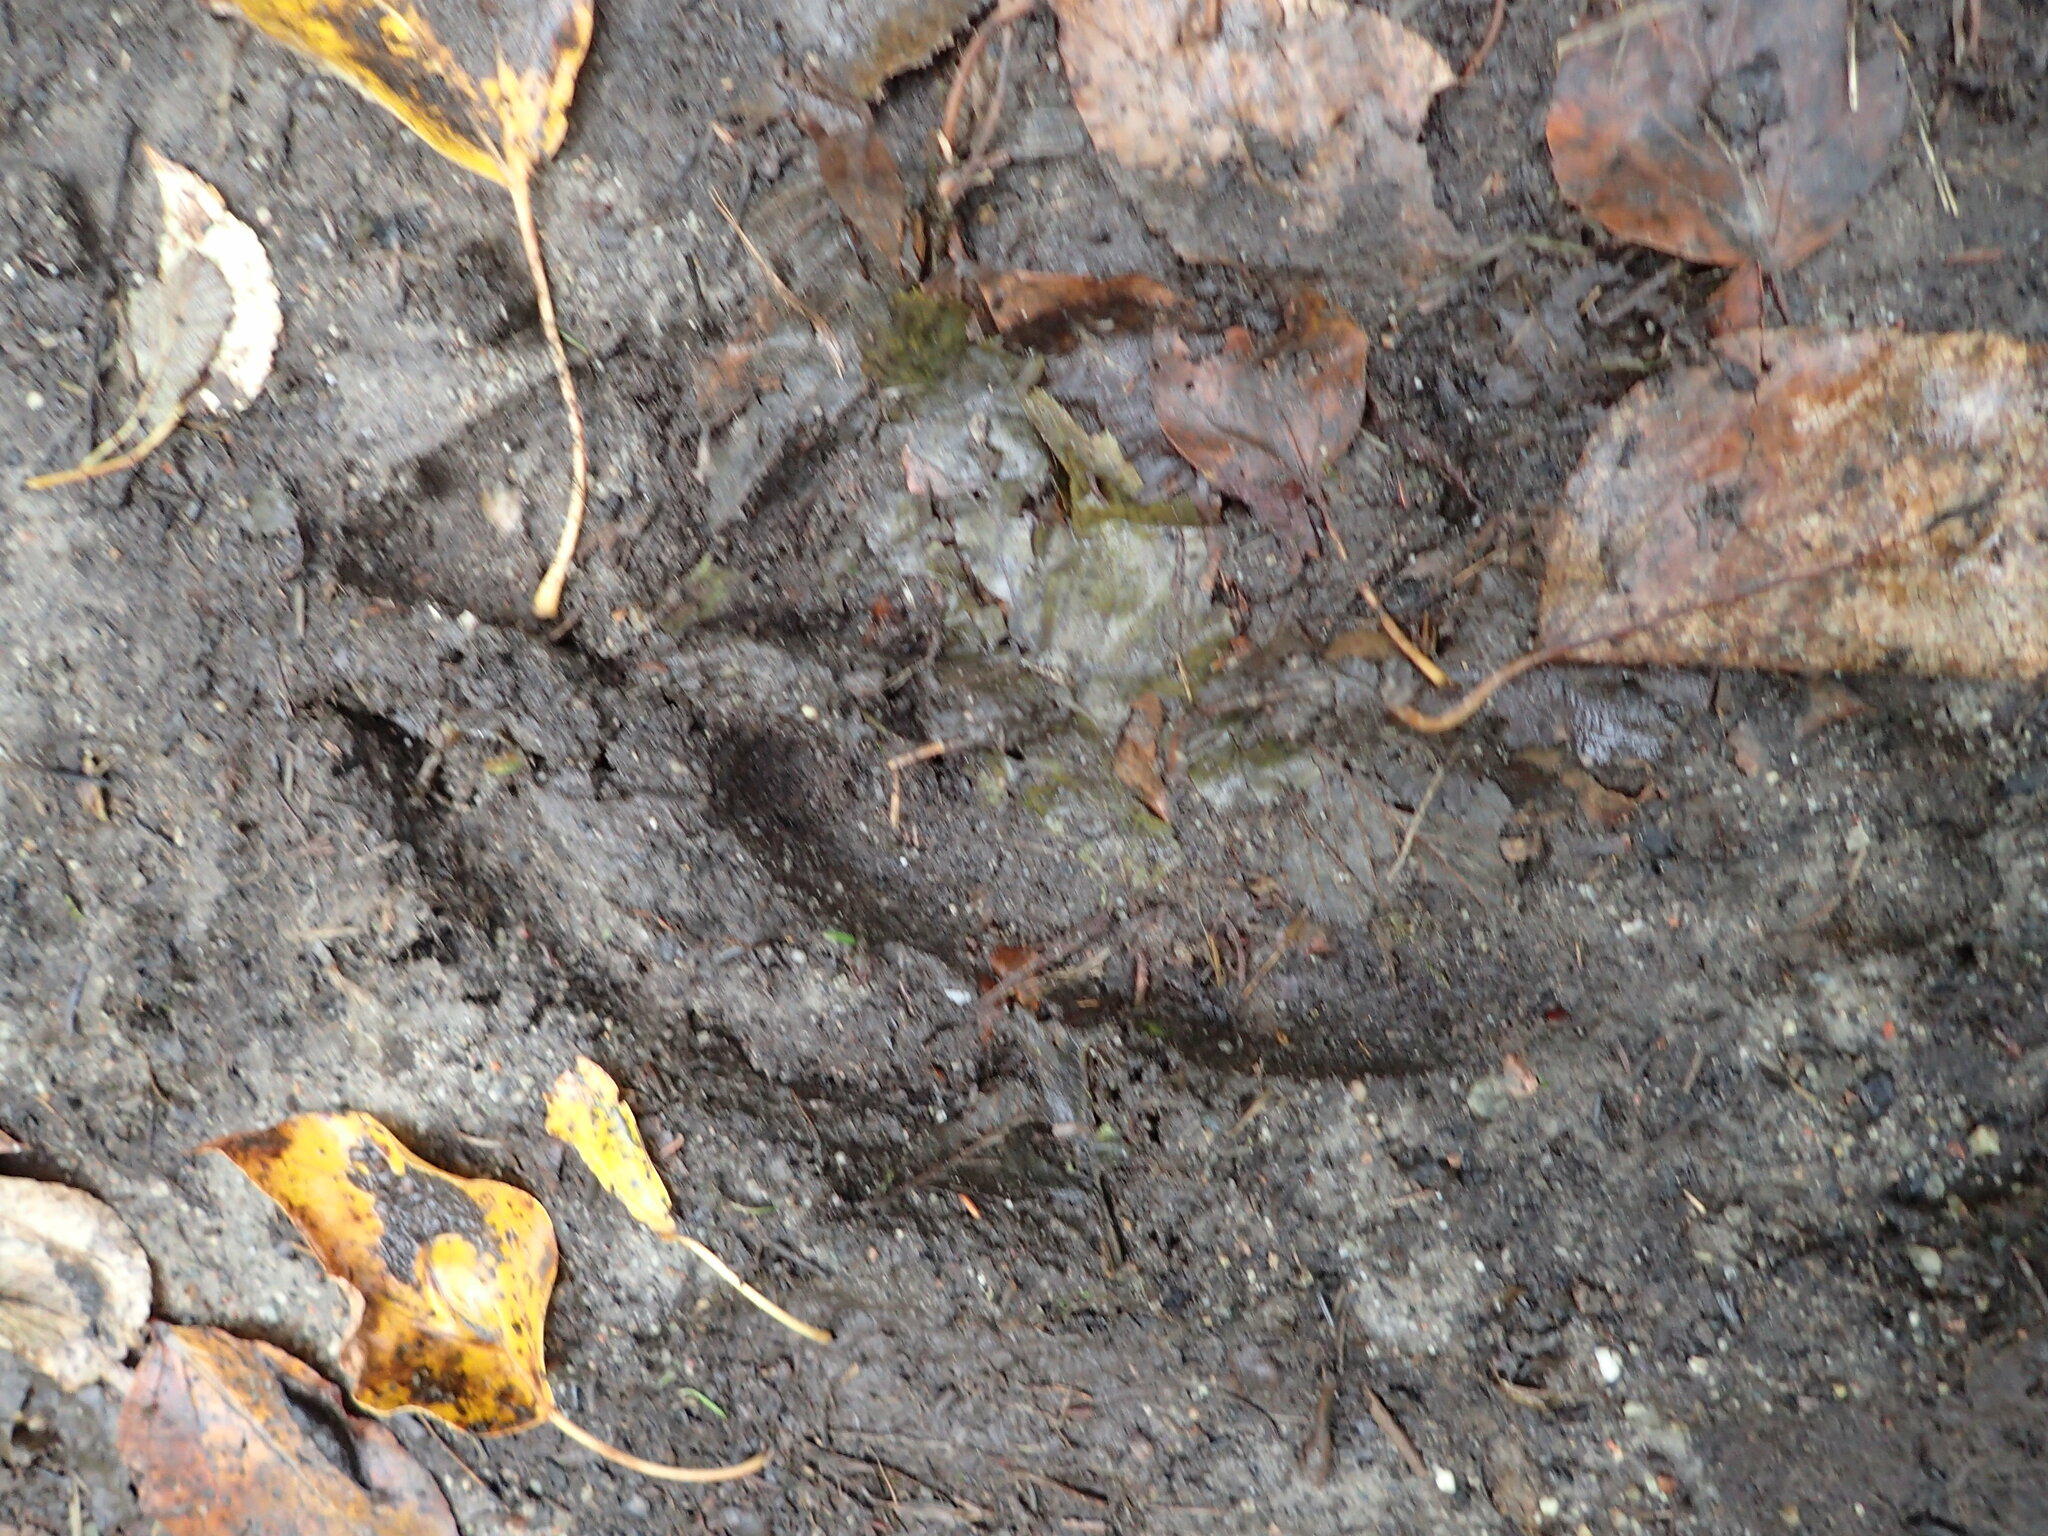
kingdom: Animalia
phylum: Chordata
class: Mammalia
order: Artiodactyla
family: Cervidae
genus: Alces
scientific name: Alces alces
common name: Moose
